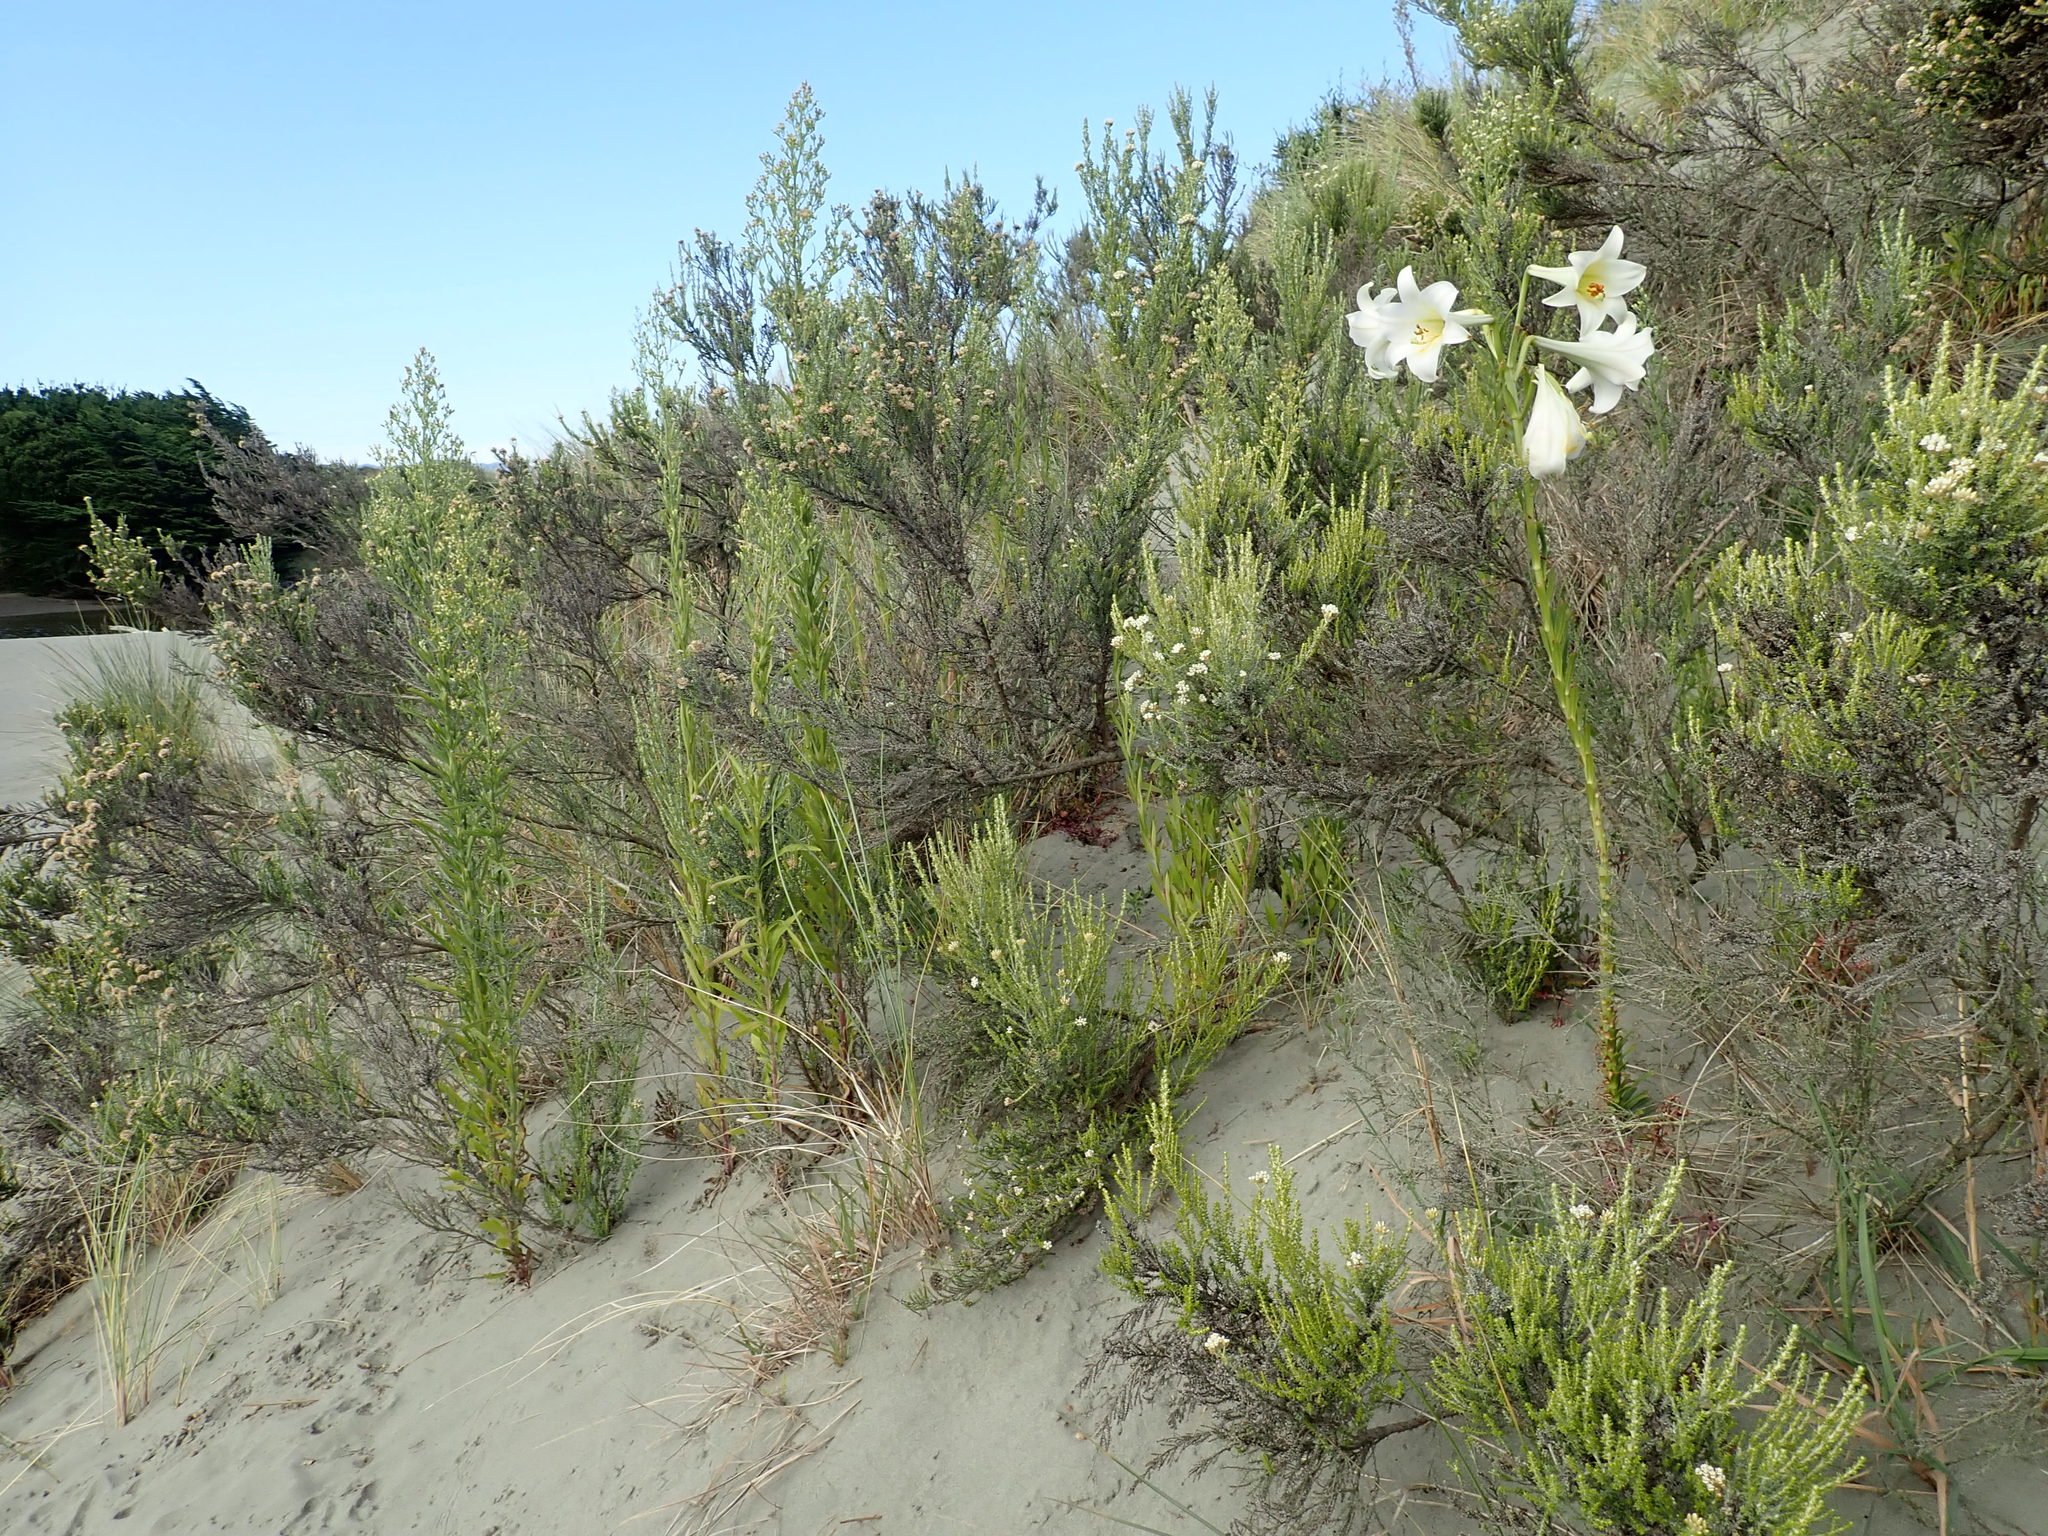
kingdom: Plantae
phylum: Tracheophyta
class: Magnoliopsida
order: Asterales
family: Asteraceae
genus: Ozothamnus
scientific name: Ozothamnus leptophyllus
